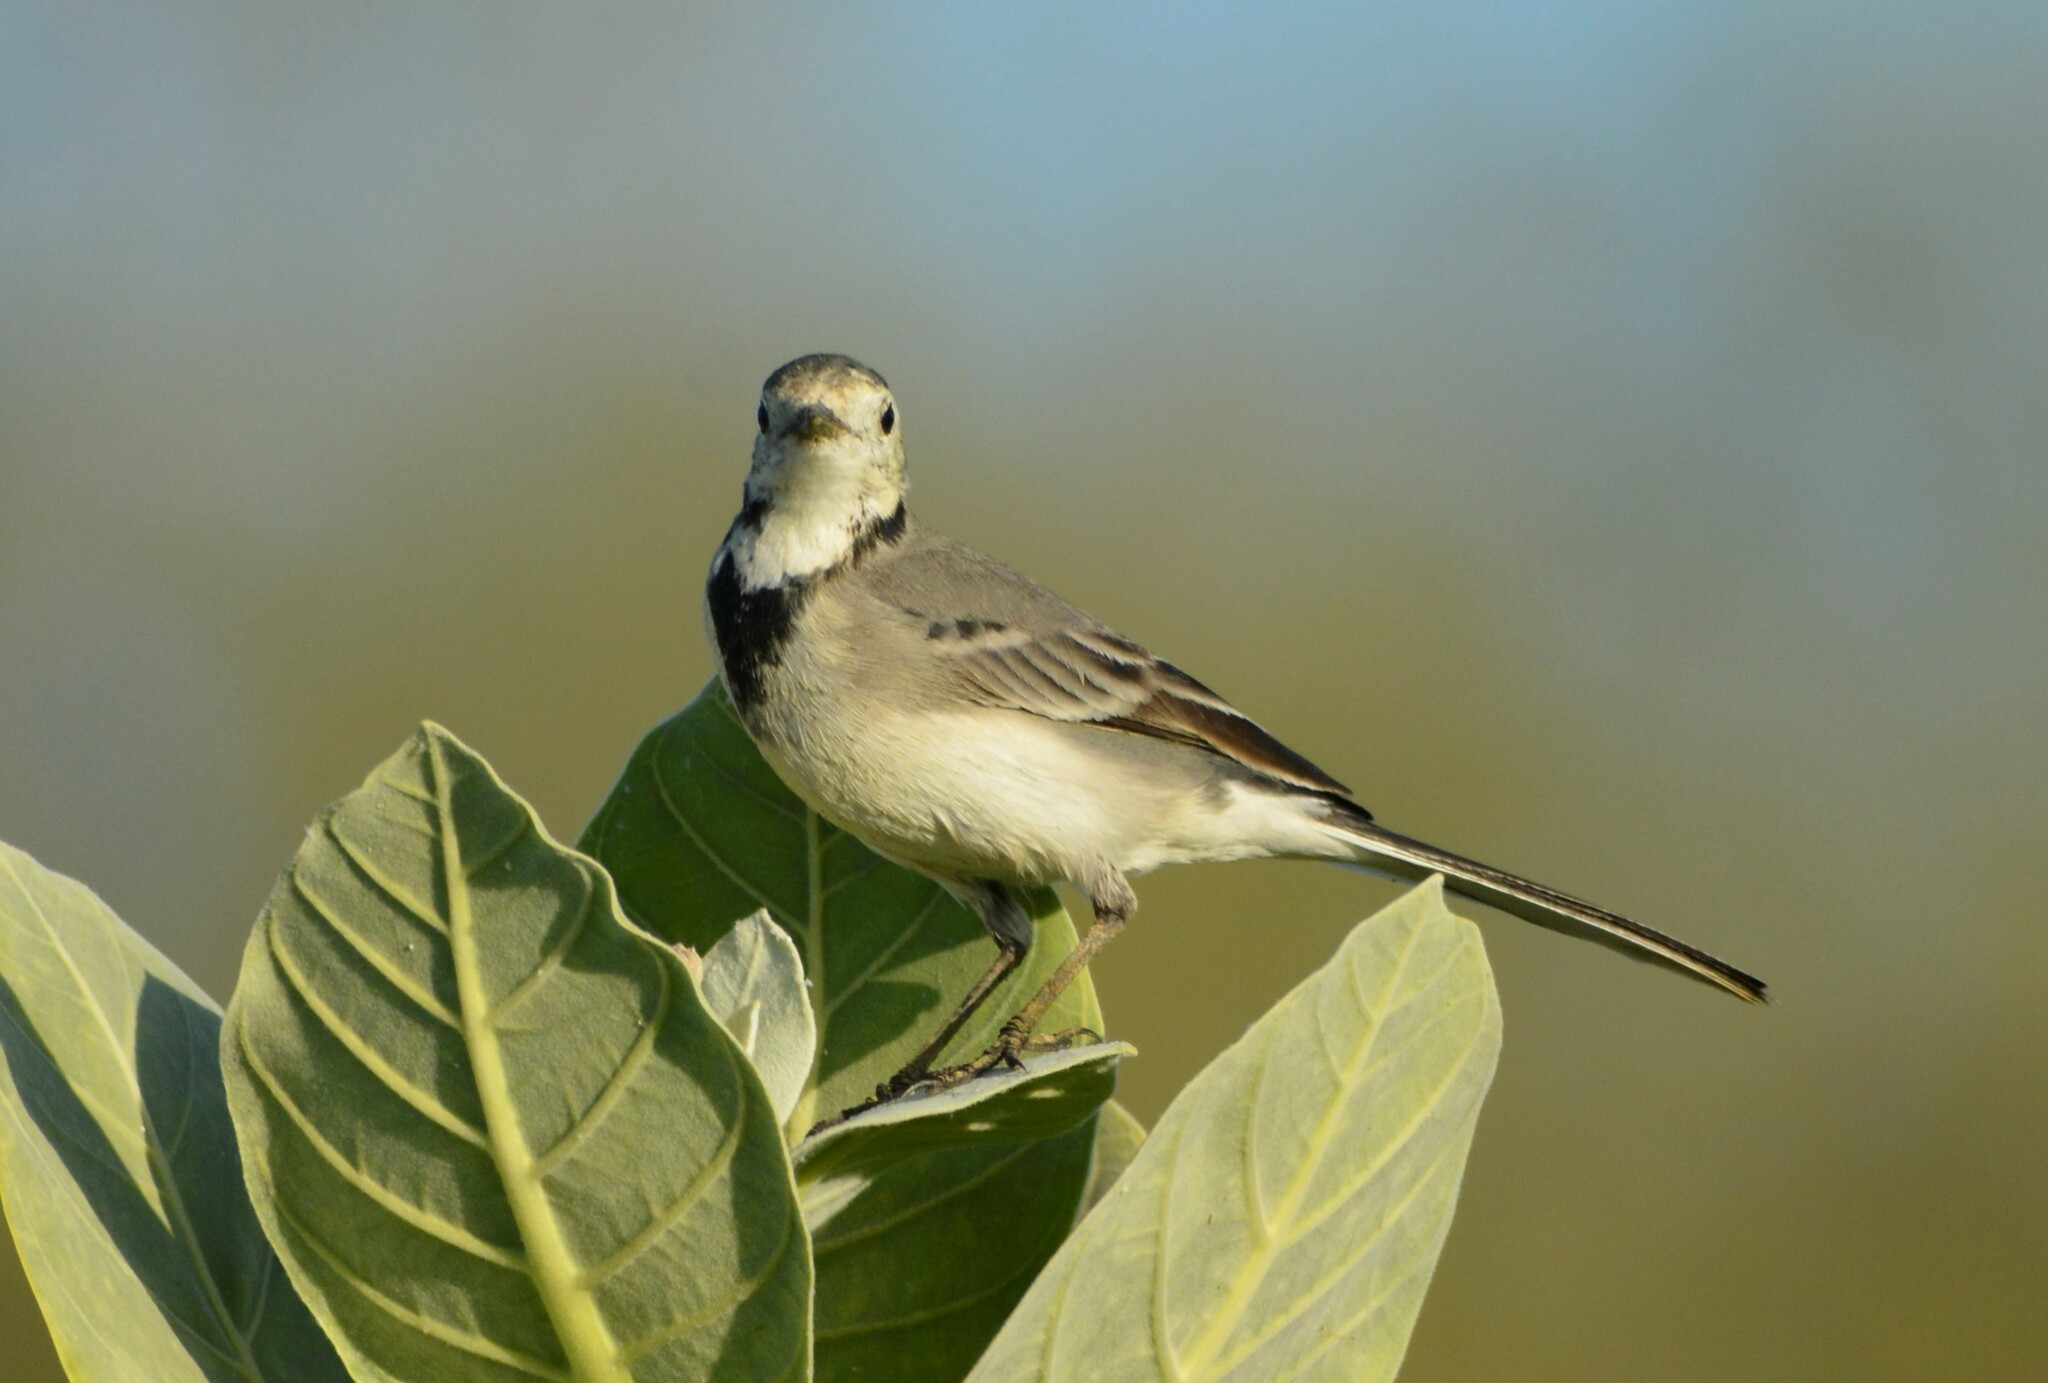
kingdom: Animalia
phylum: Chordata
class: Aves
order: Passeriformes
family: Motacillidae
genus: Motacilla
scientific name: Motacilla alba
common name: White wagtail
